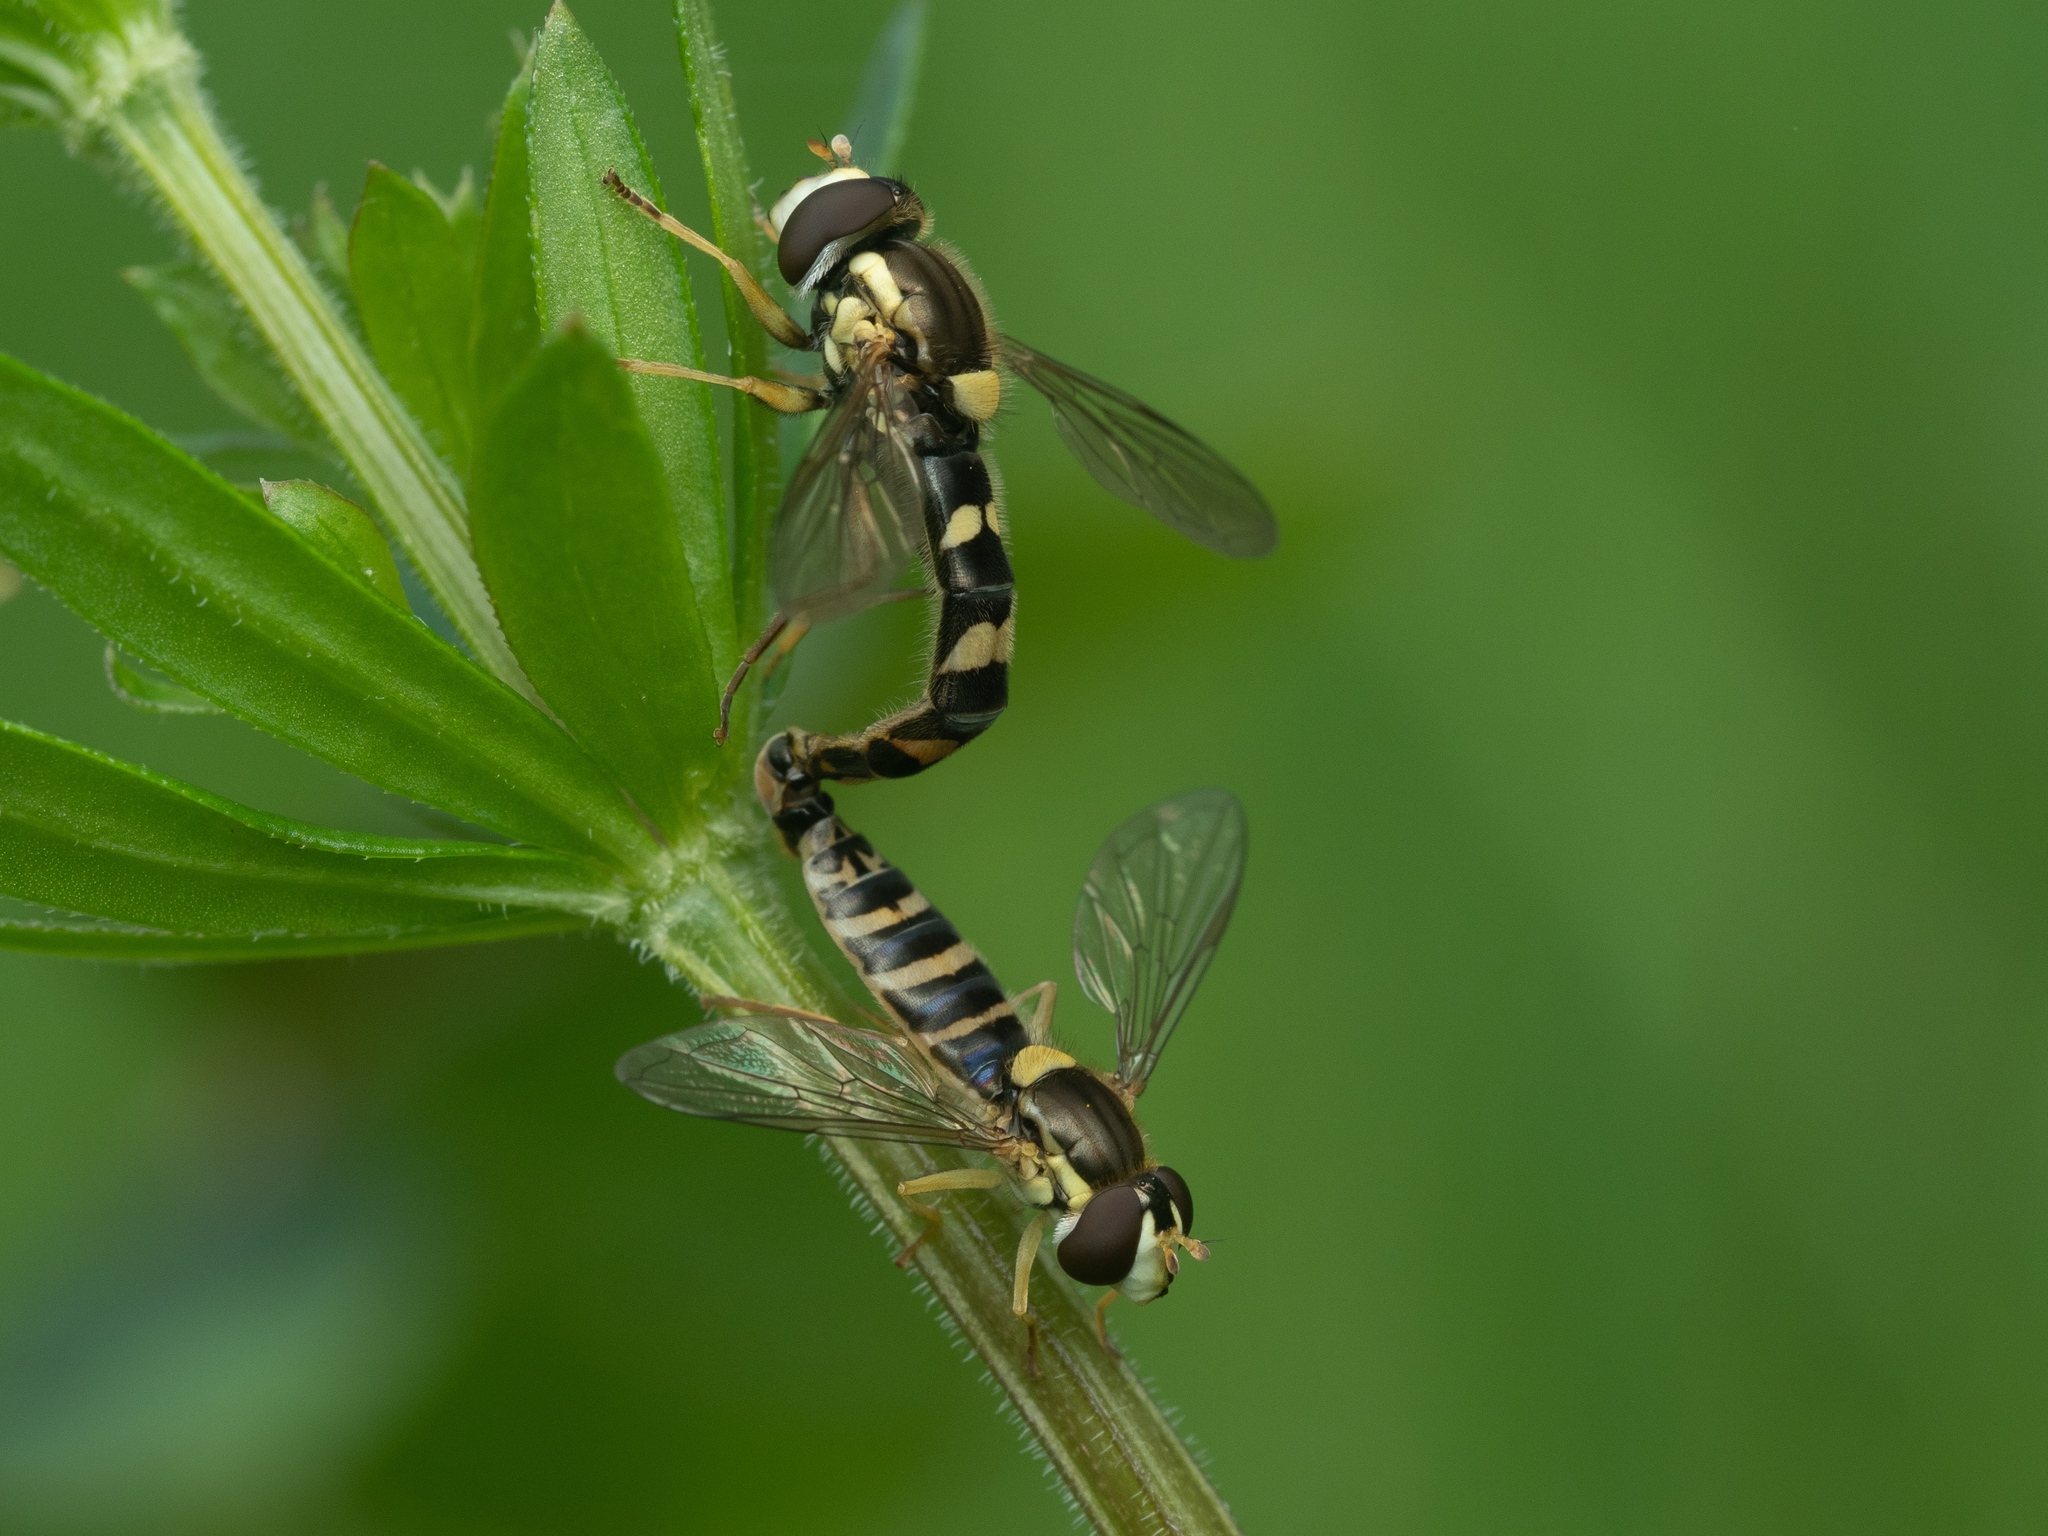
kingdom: Animalia
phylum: Arthropoda
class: Insecta
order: Diptera
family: Syrphidae
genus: Sphaerophoria
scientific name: Sphaerophoria scripta
